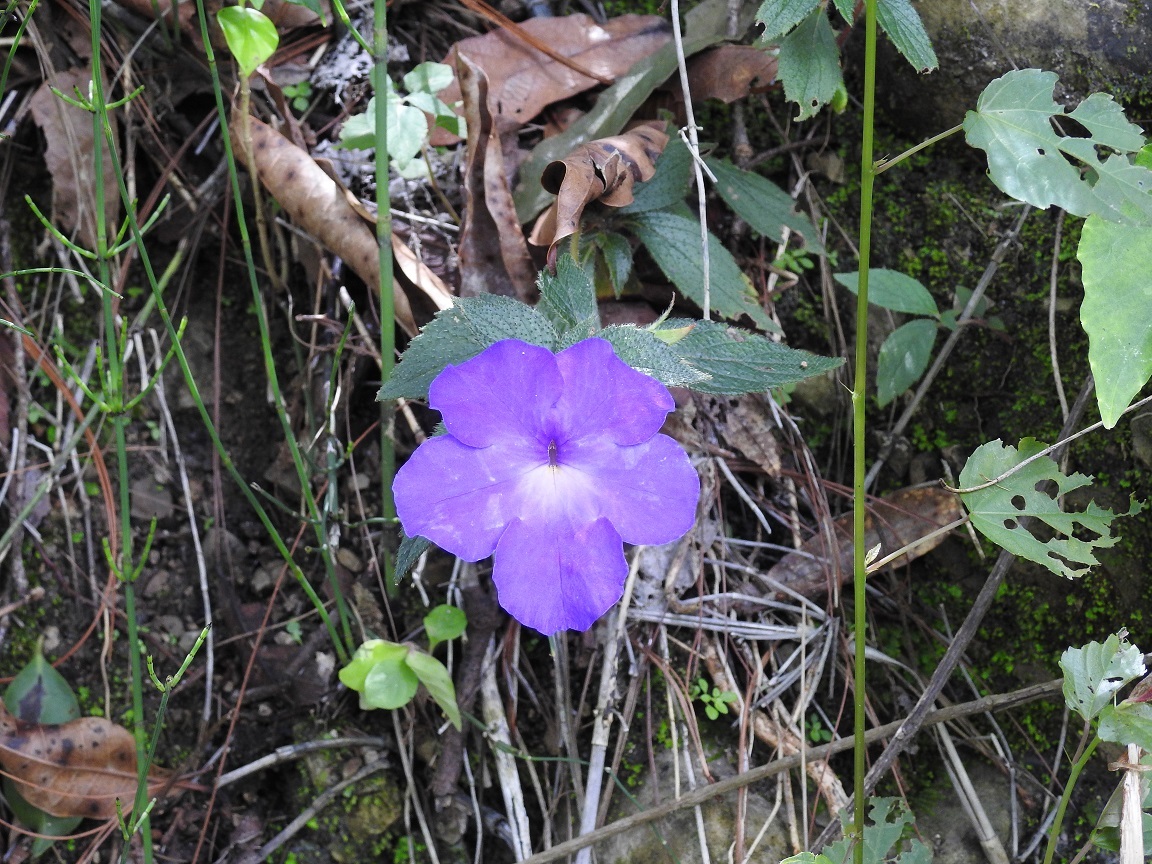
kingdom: Plantae
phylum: Tracheophyta
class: Magnoliopsida
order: Lamiales
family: Gesneriaceae
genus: Achimenes
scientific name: Achimenes longiflora
